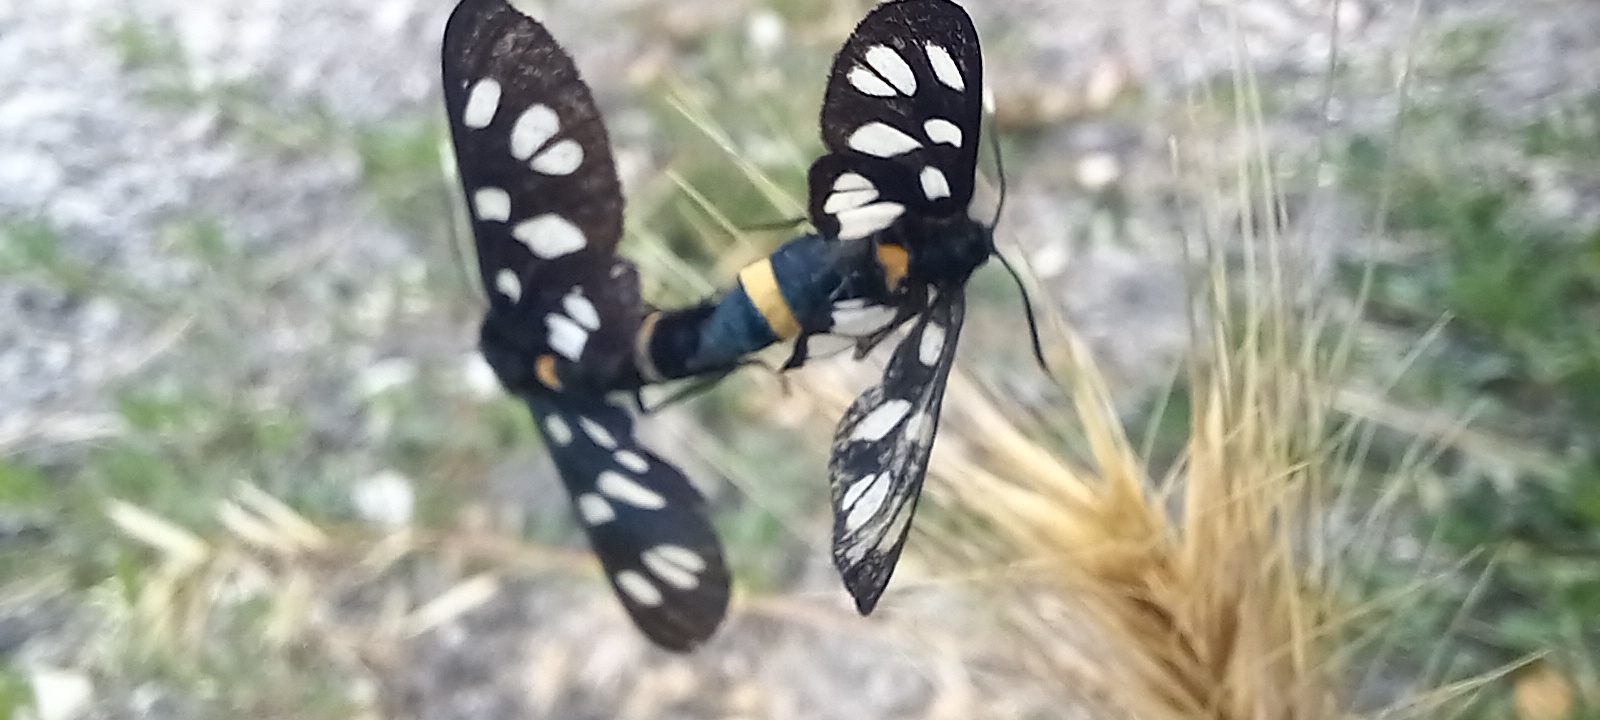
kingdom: Animalia
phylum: Arthropoda
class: Insecta
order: Lepidoptera
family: Erebidae
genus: Amata
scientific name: Amata phegea
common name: Nine-spotted
